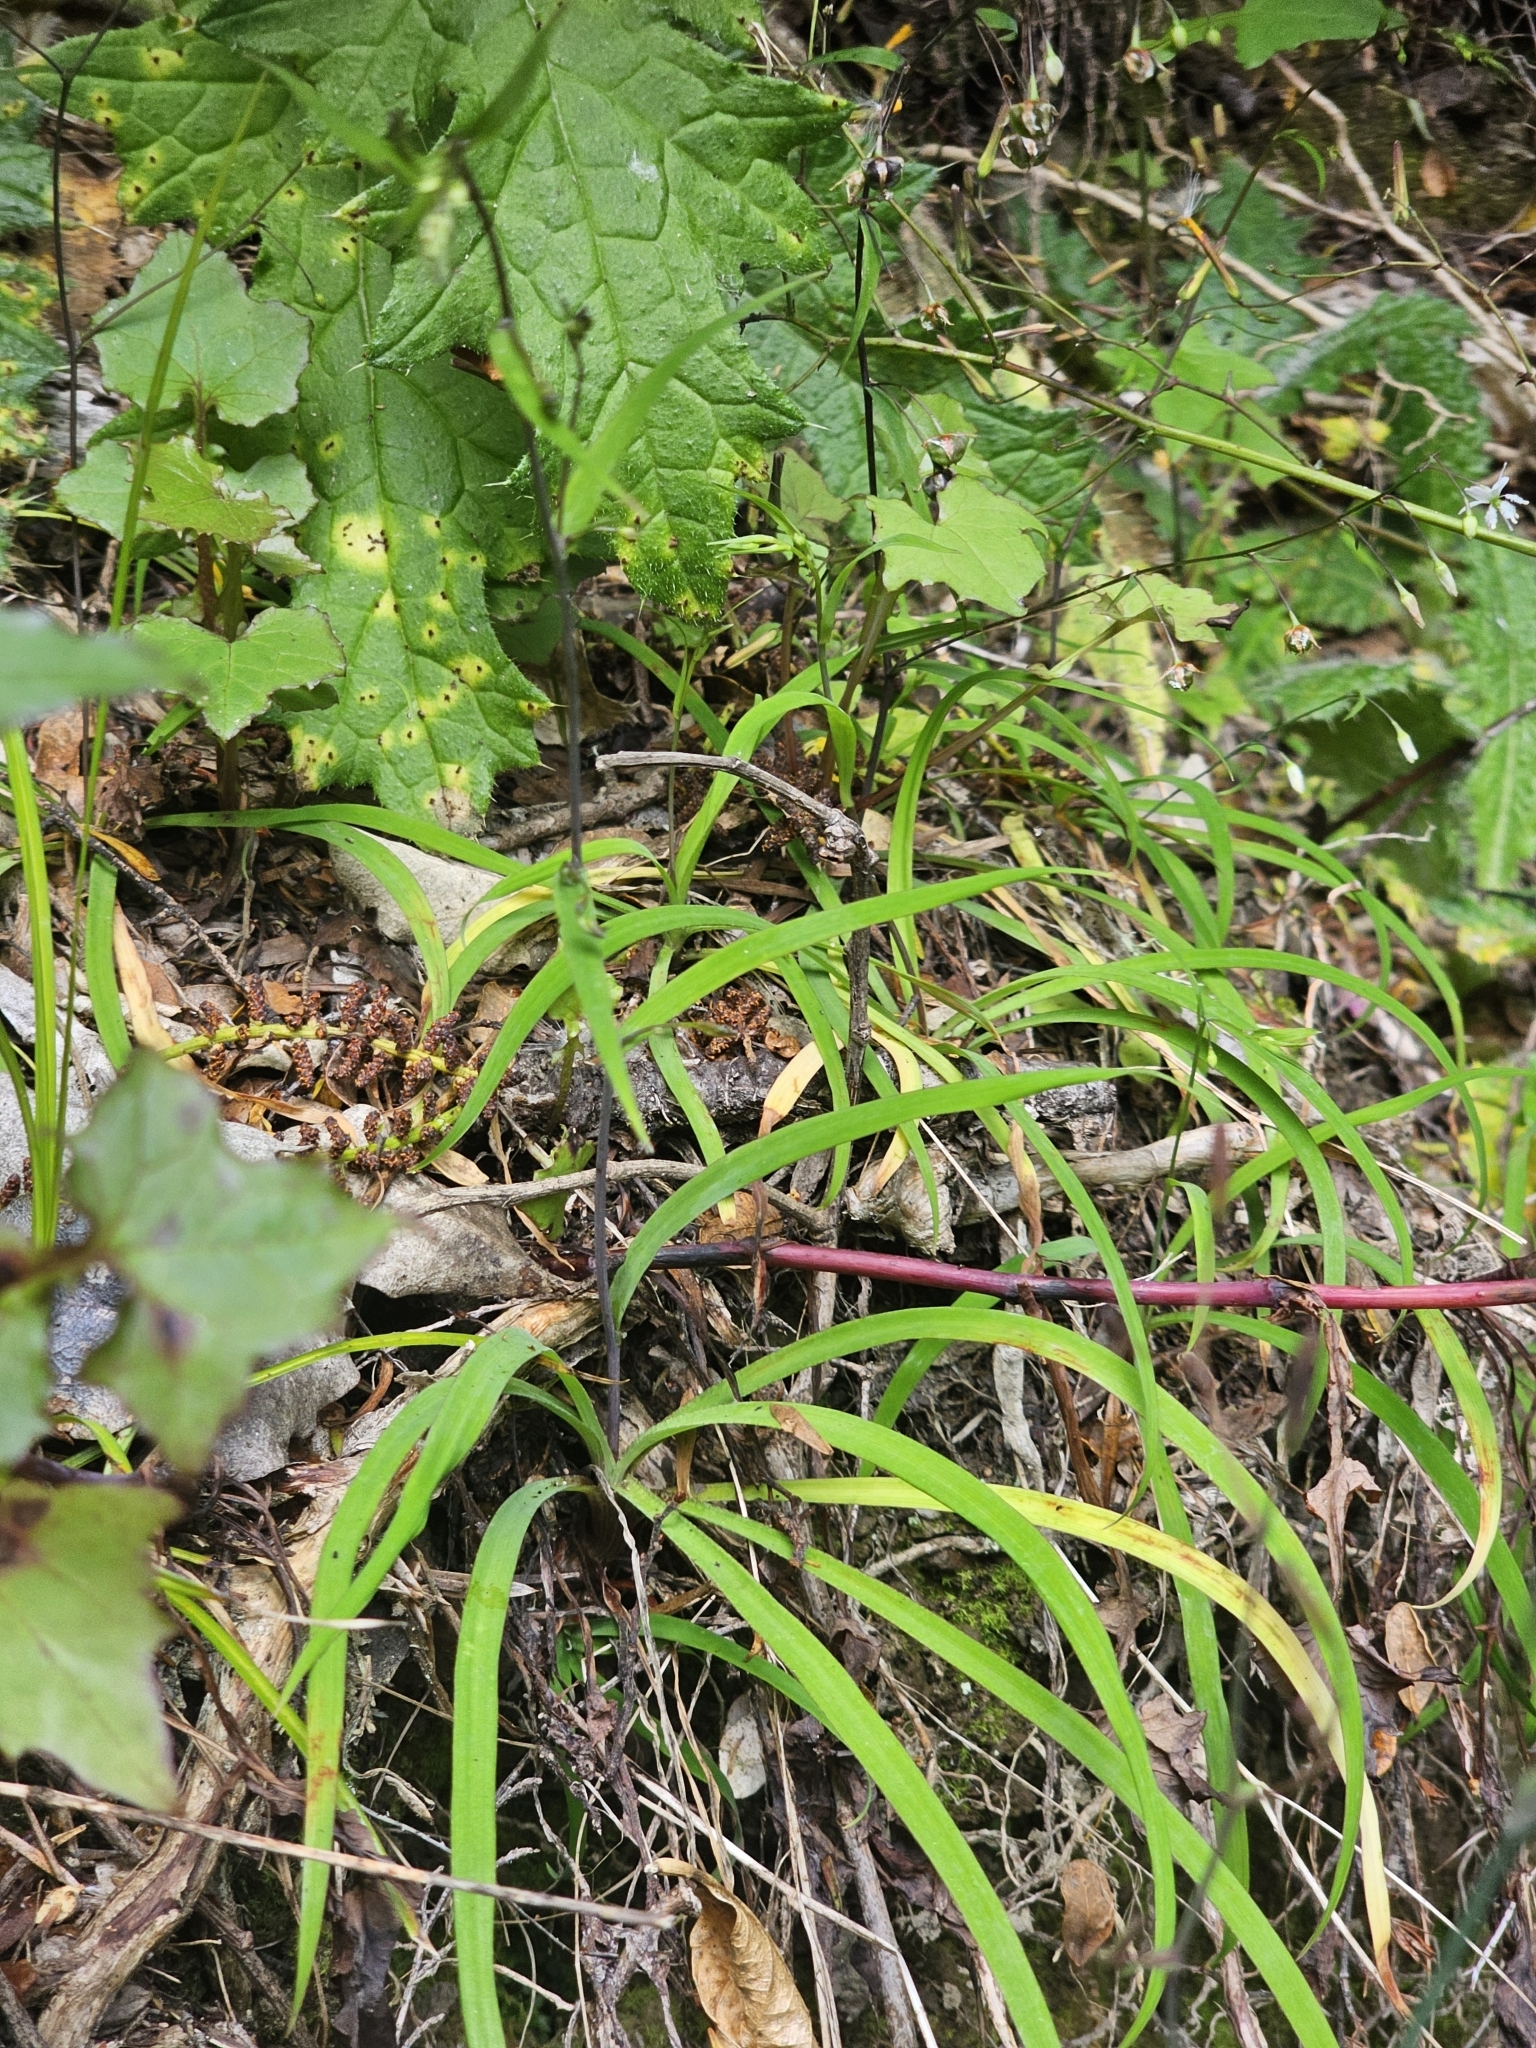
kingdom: Plantae
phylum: Tracheophyta
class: Liliopsida
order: Asparagales
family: Asparagaceae
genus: Arthropodium
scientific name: Arthropodium candidum
